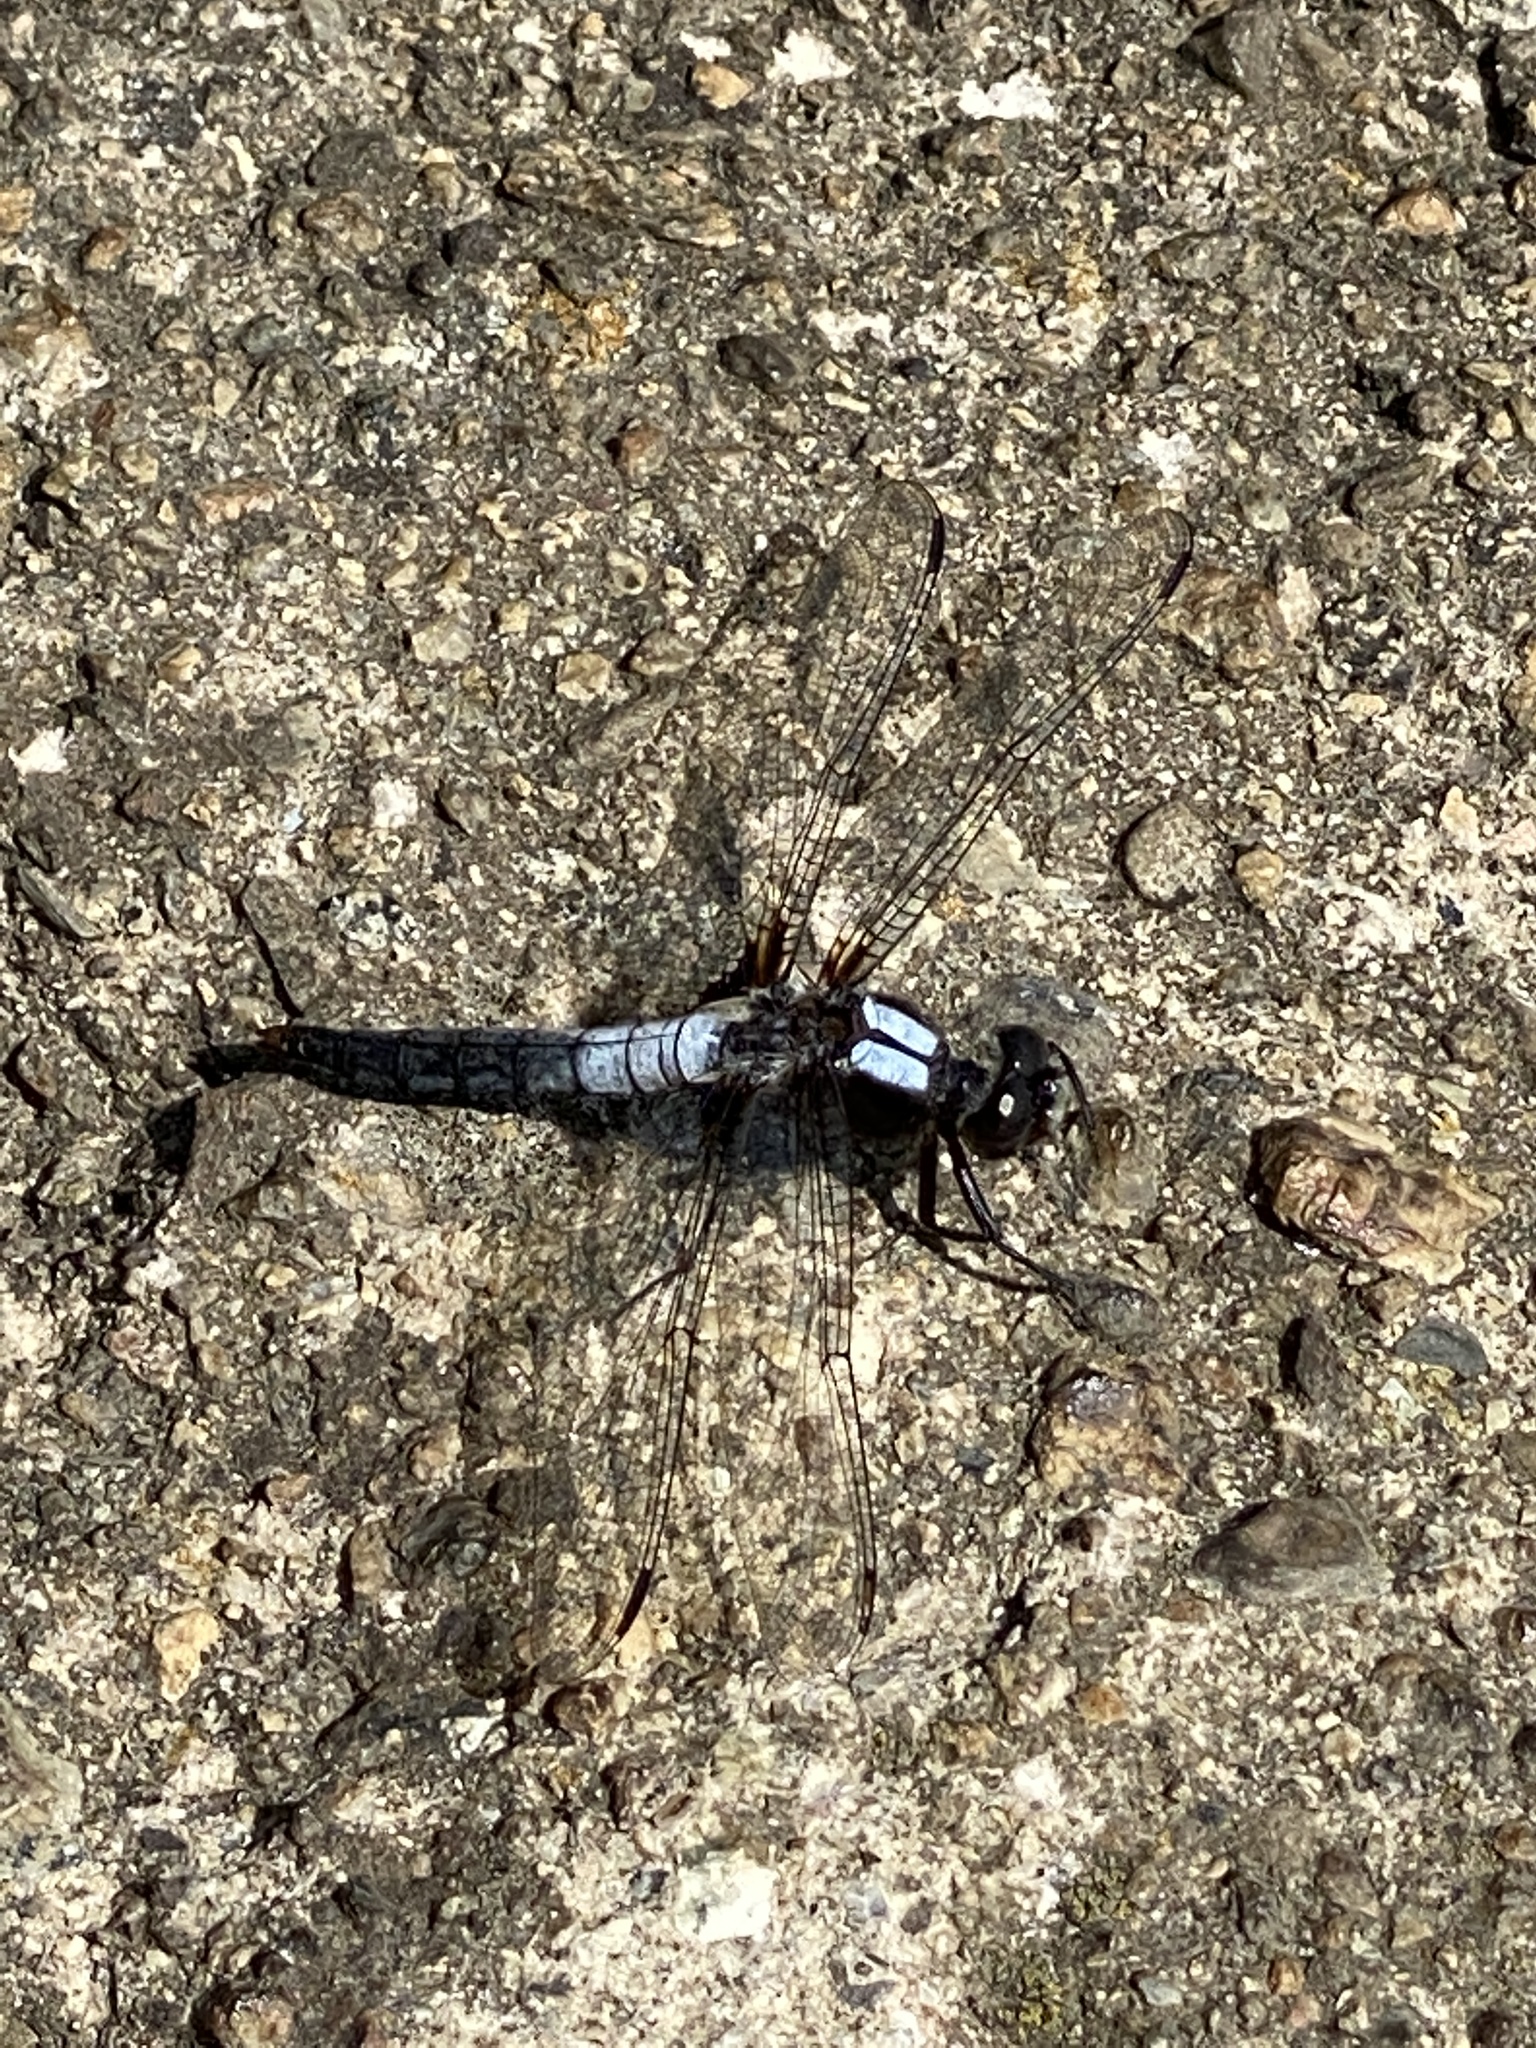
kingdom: Animalia
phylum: Arthropoda
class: Insecta
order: Odonata
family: Libellulidae
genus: Ladona
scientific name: Ladona julia
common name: Chalk-fronted corporal
